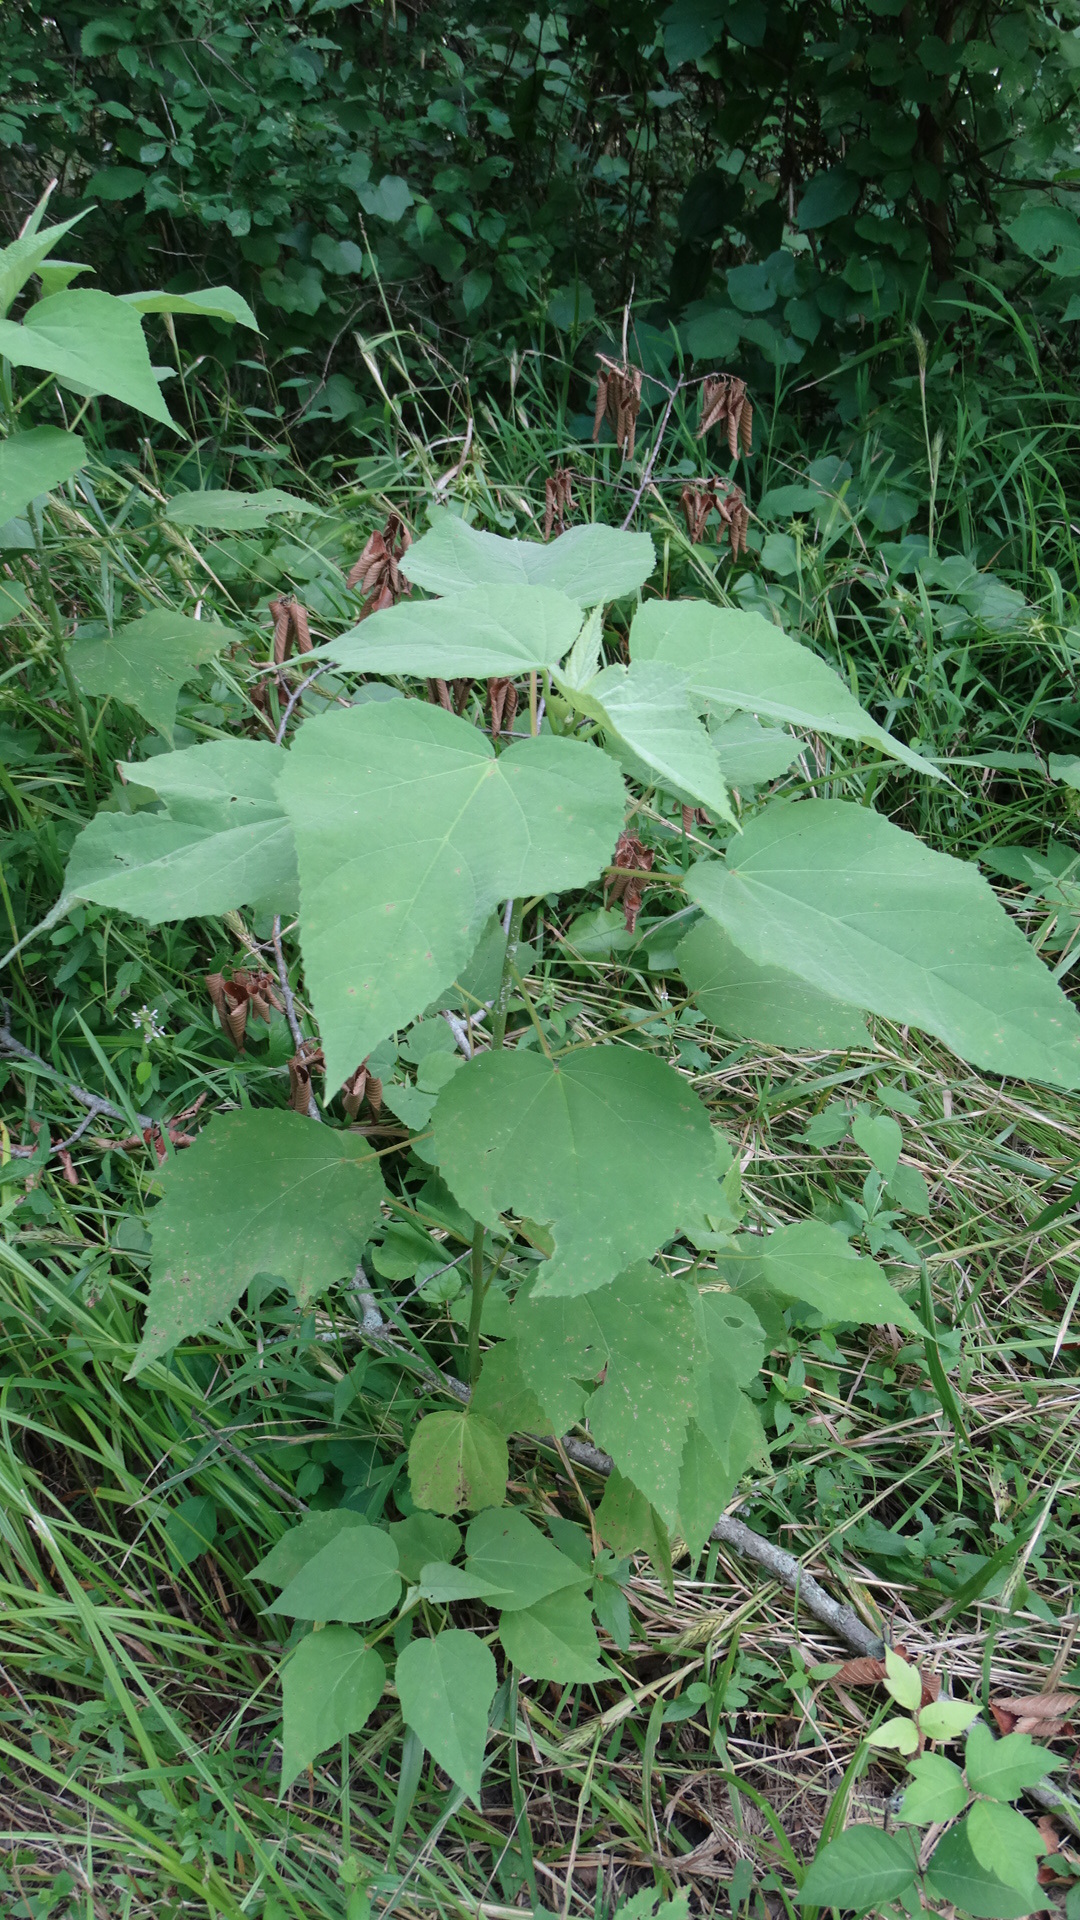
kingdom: Plantae
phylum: Tracheophyta
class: Magnoliopsida
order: Malvales
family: Malvaceae
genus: Hibiscus
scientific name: Hibiscus moscheutos
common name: Common rose-mallow
